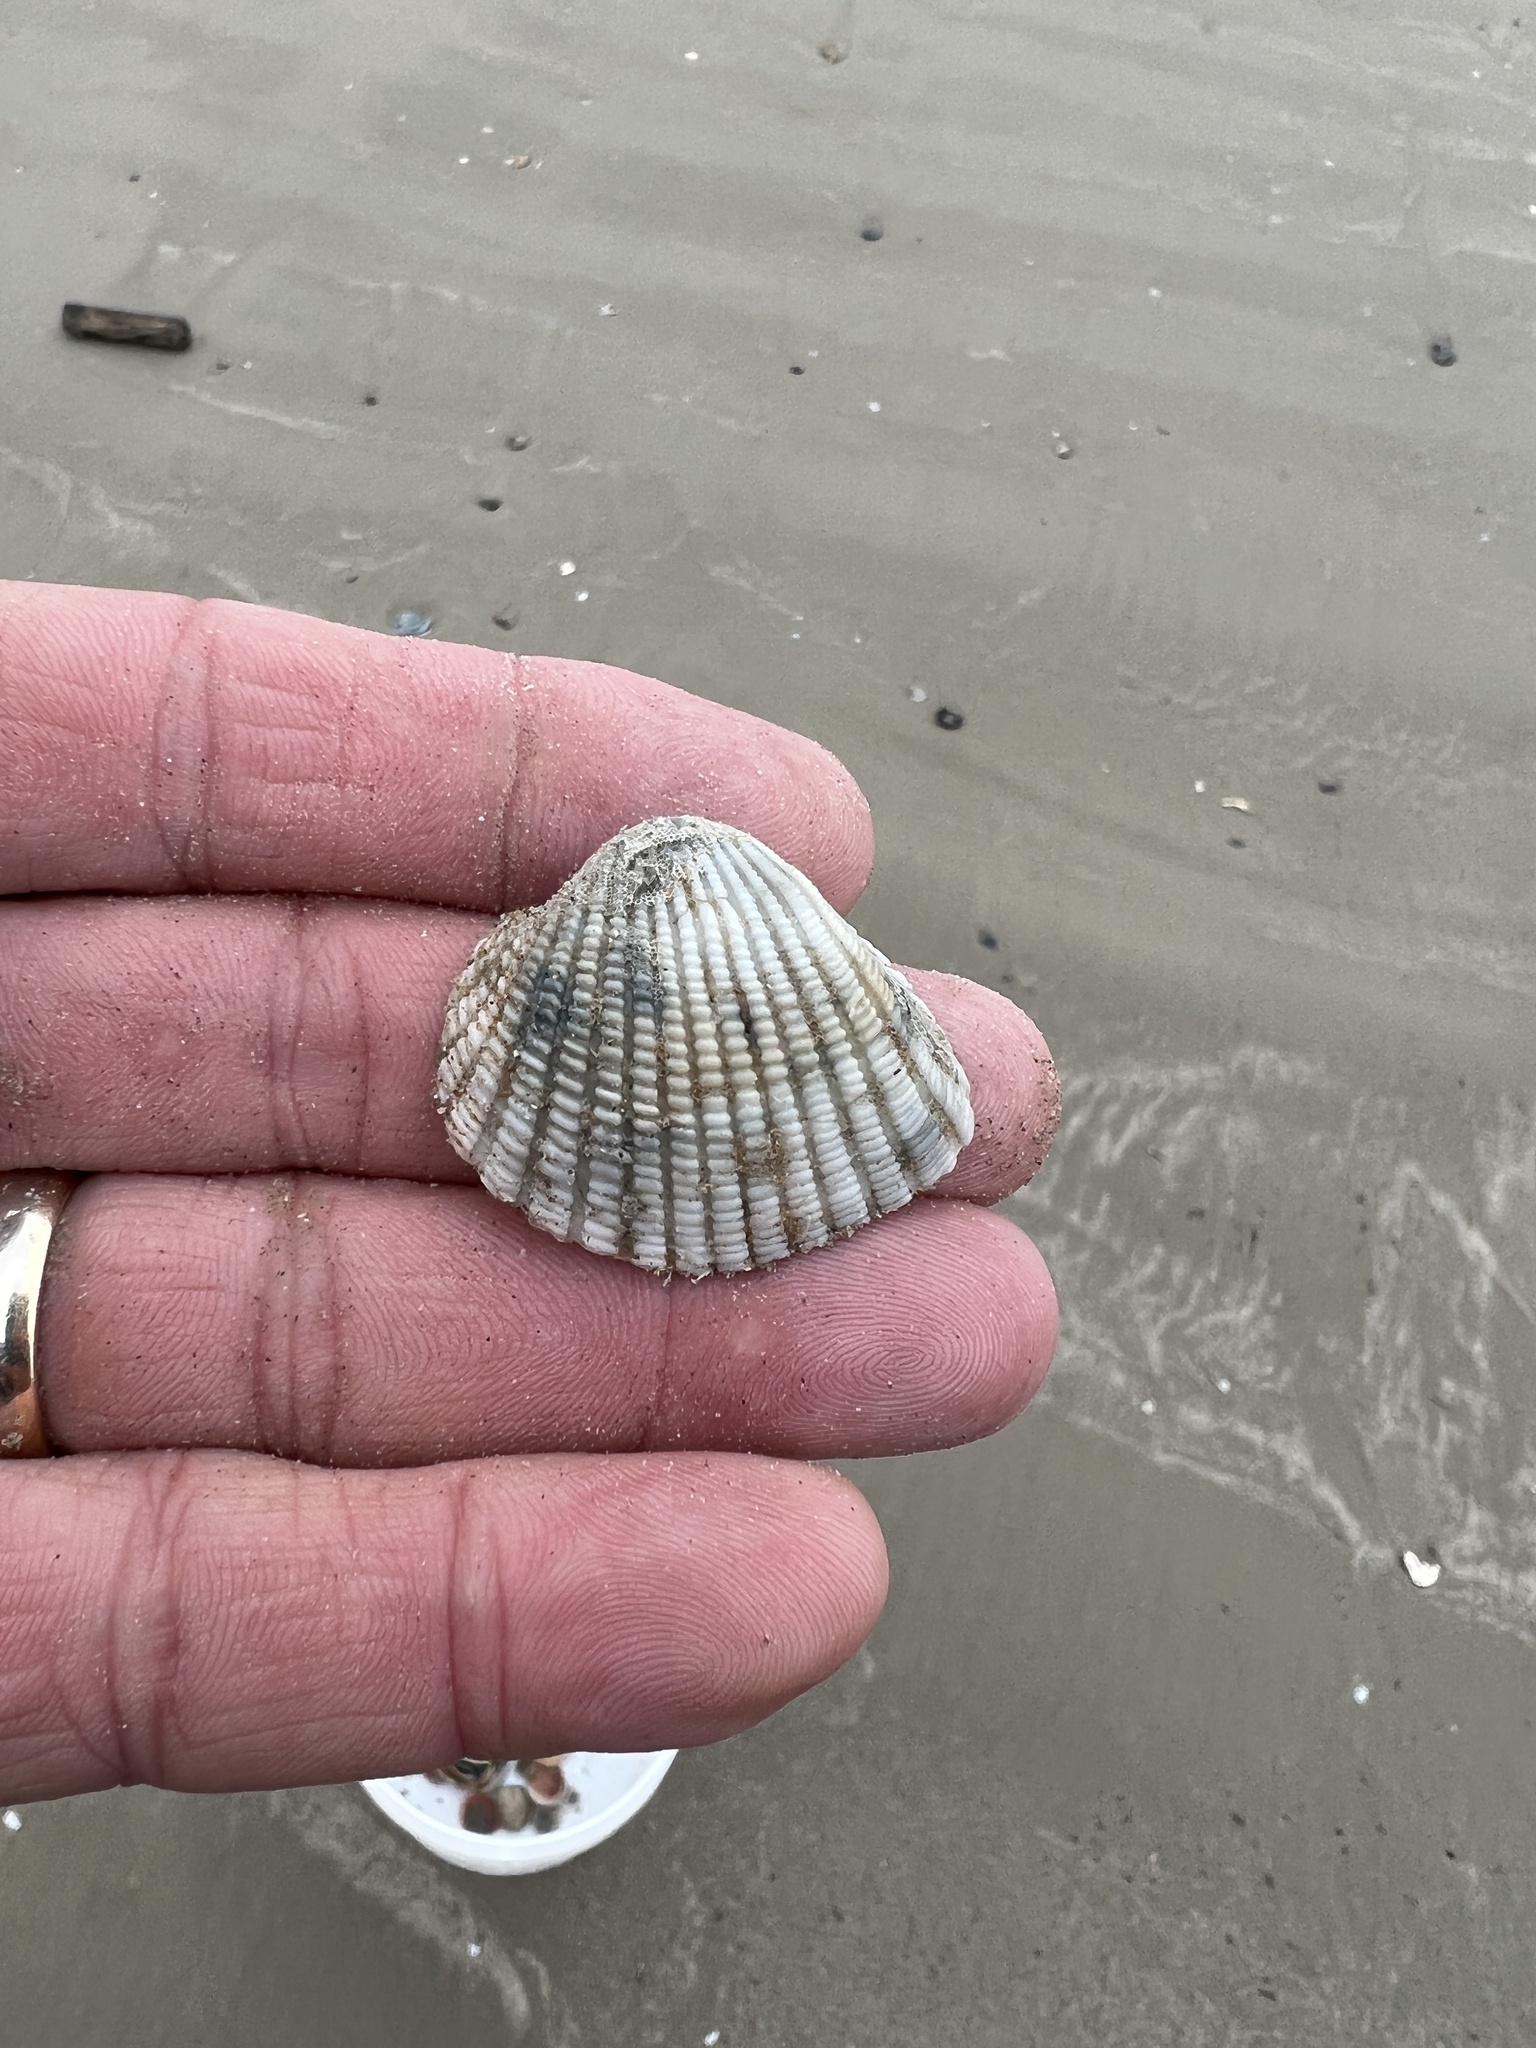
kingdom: Animalia
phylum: Mollusca
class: Bivalvia
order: Arcida
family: Arcidae
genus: Anadara
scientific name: Anadara brasiliana
